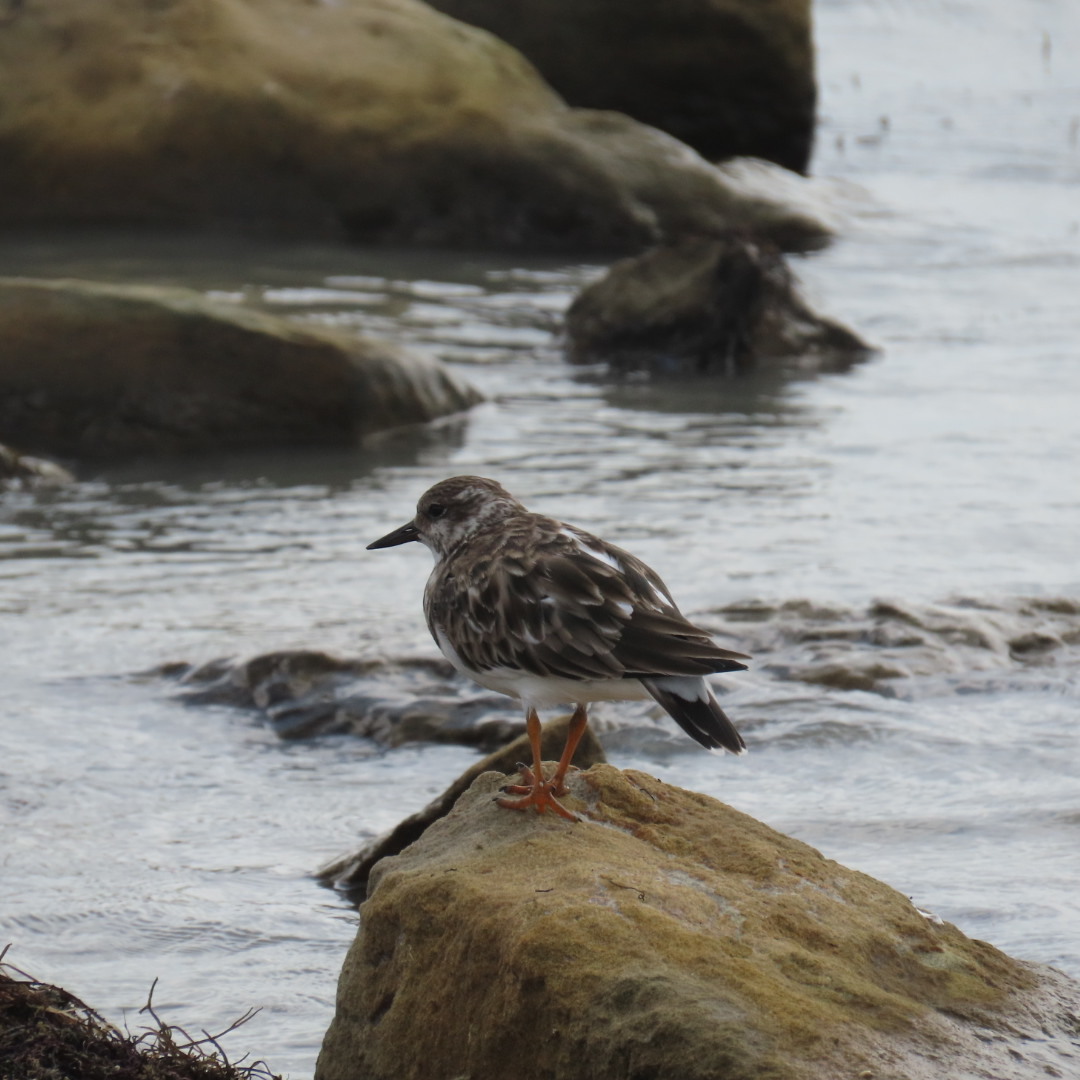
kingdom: Animalia
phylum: Chordata
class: Aves
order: Charadriiformes
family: Scolopacidae
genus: Arenaria
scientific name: Arenaria interpres
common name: Ruddy turnstone
